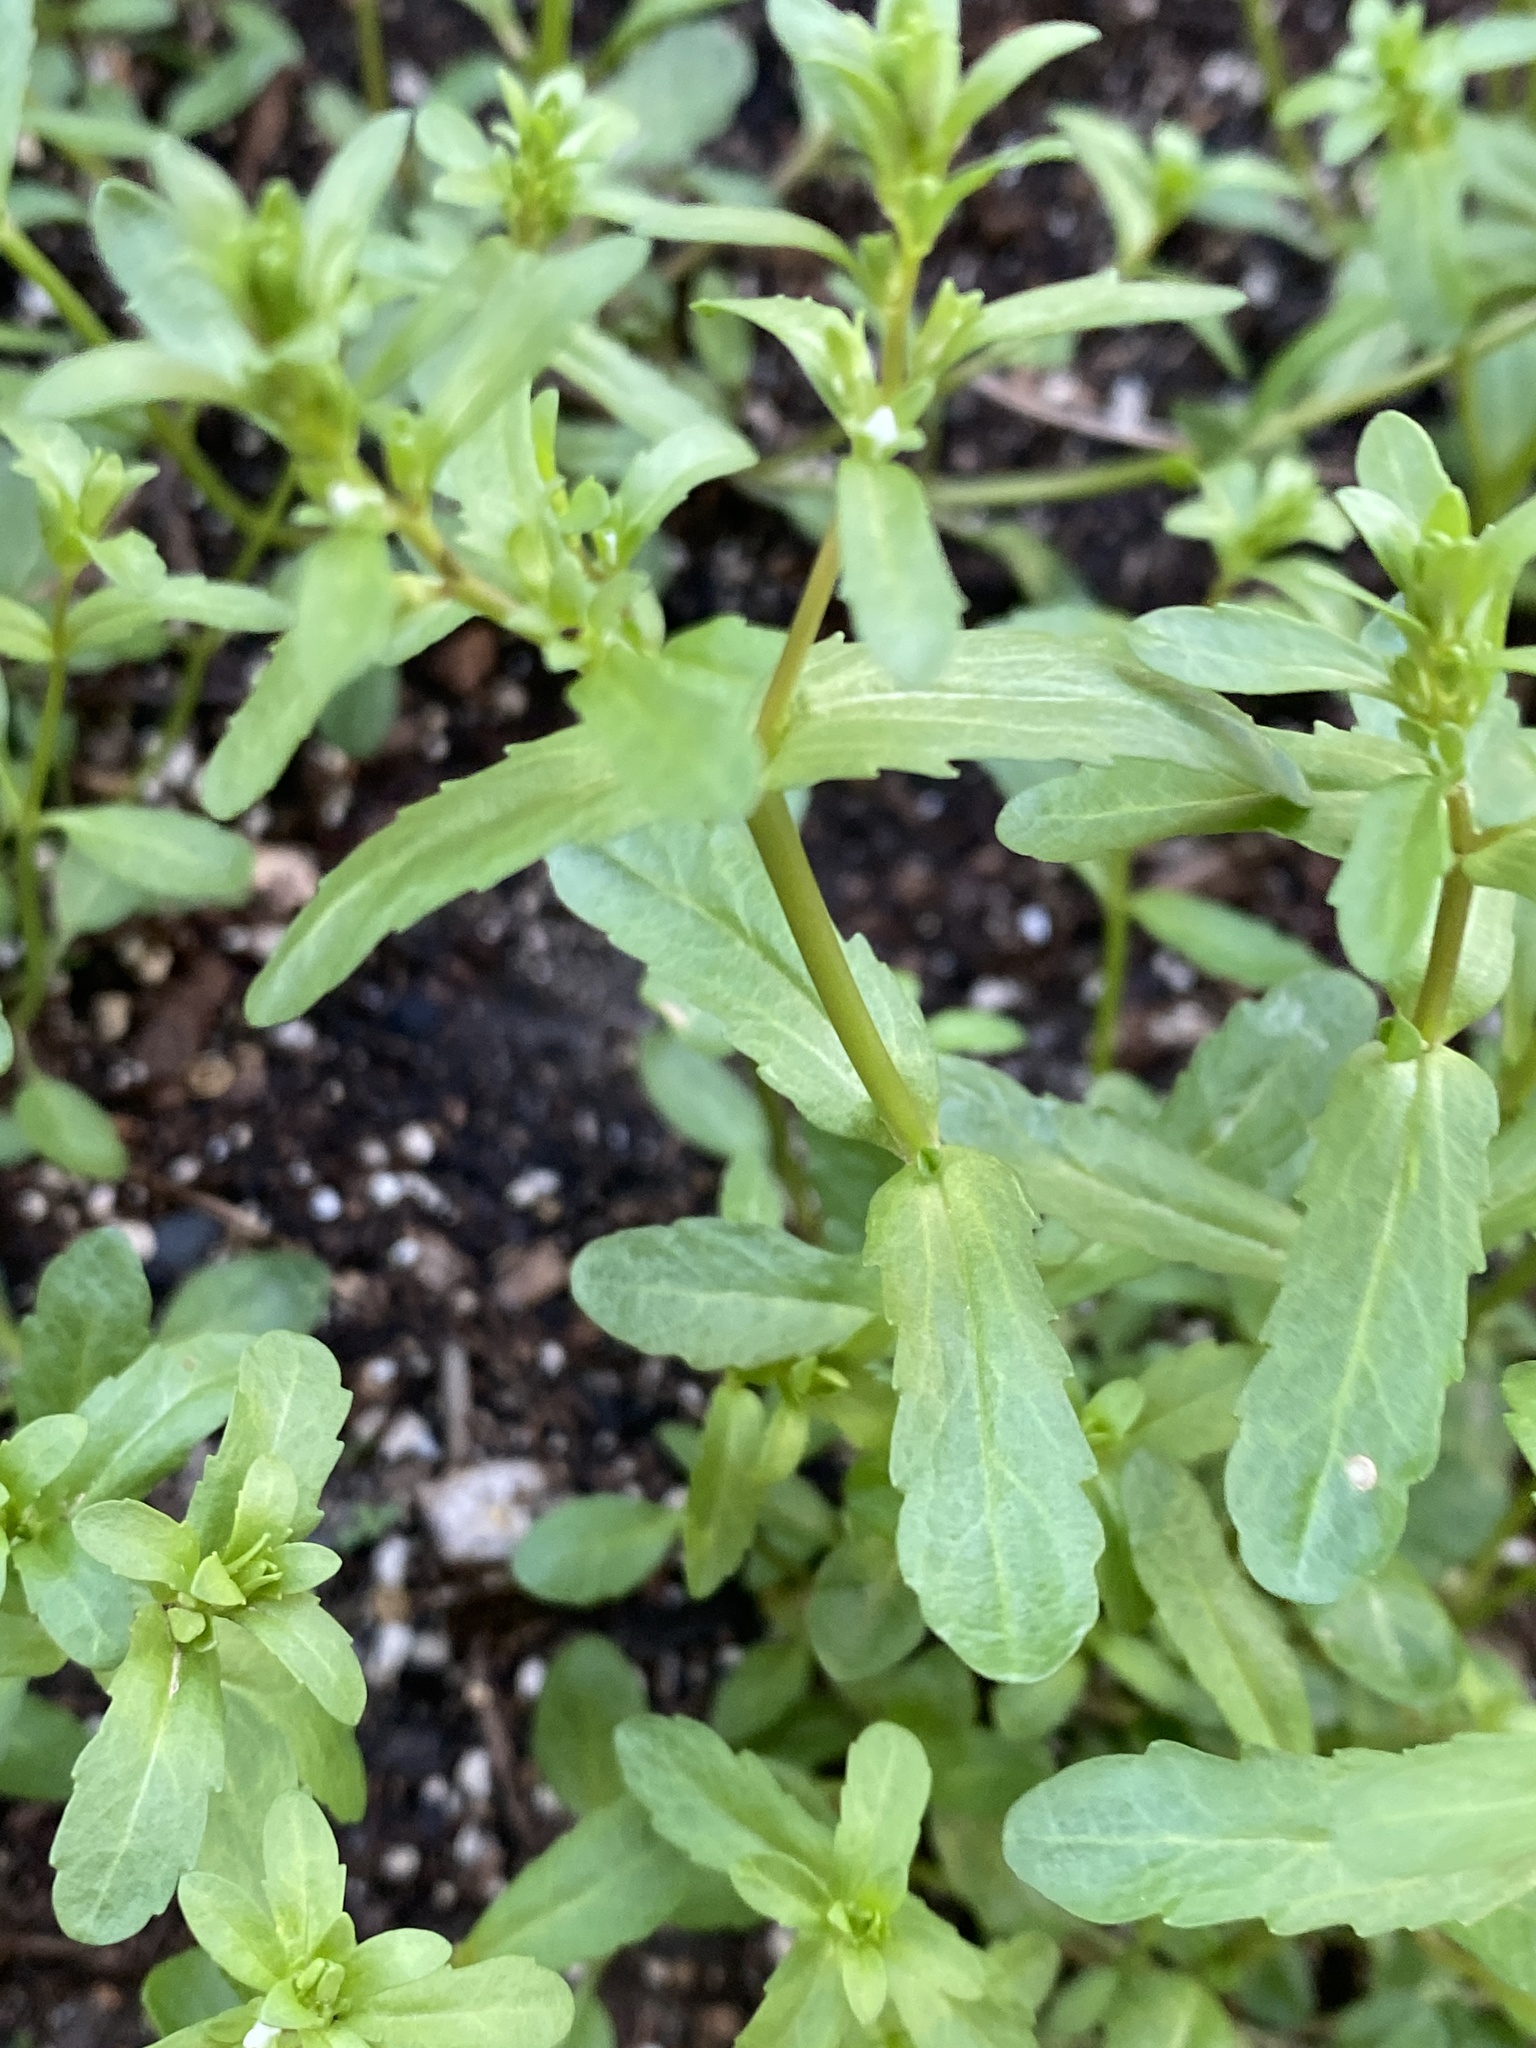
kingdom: Plantae
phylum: Tracheophyta
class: Magnoliopsida
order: Lamiales
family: Plantaginaceae
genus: Veronica
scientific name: Veronica peregrina
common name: Neckweed
